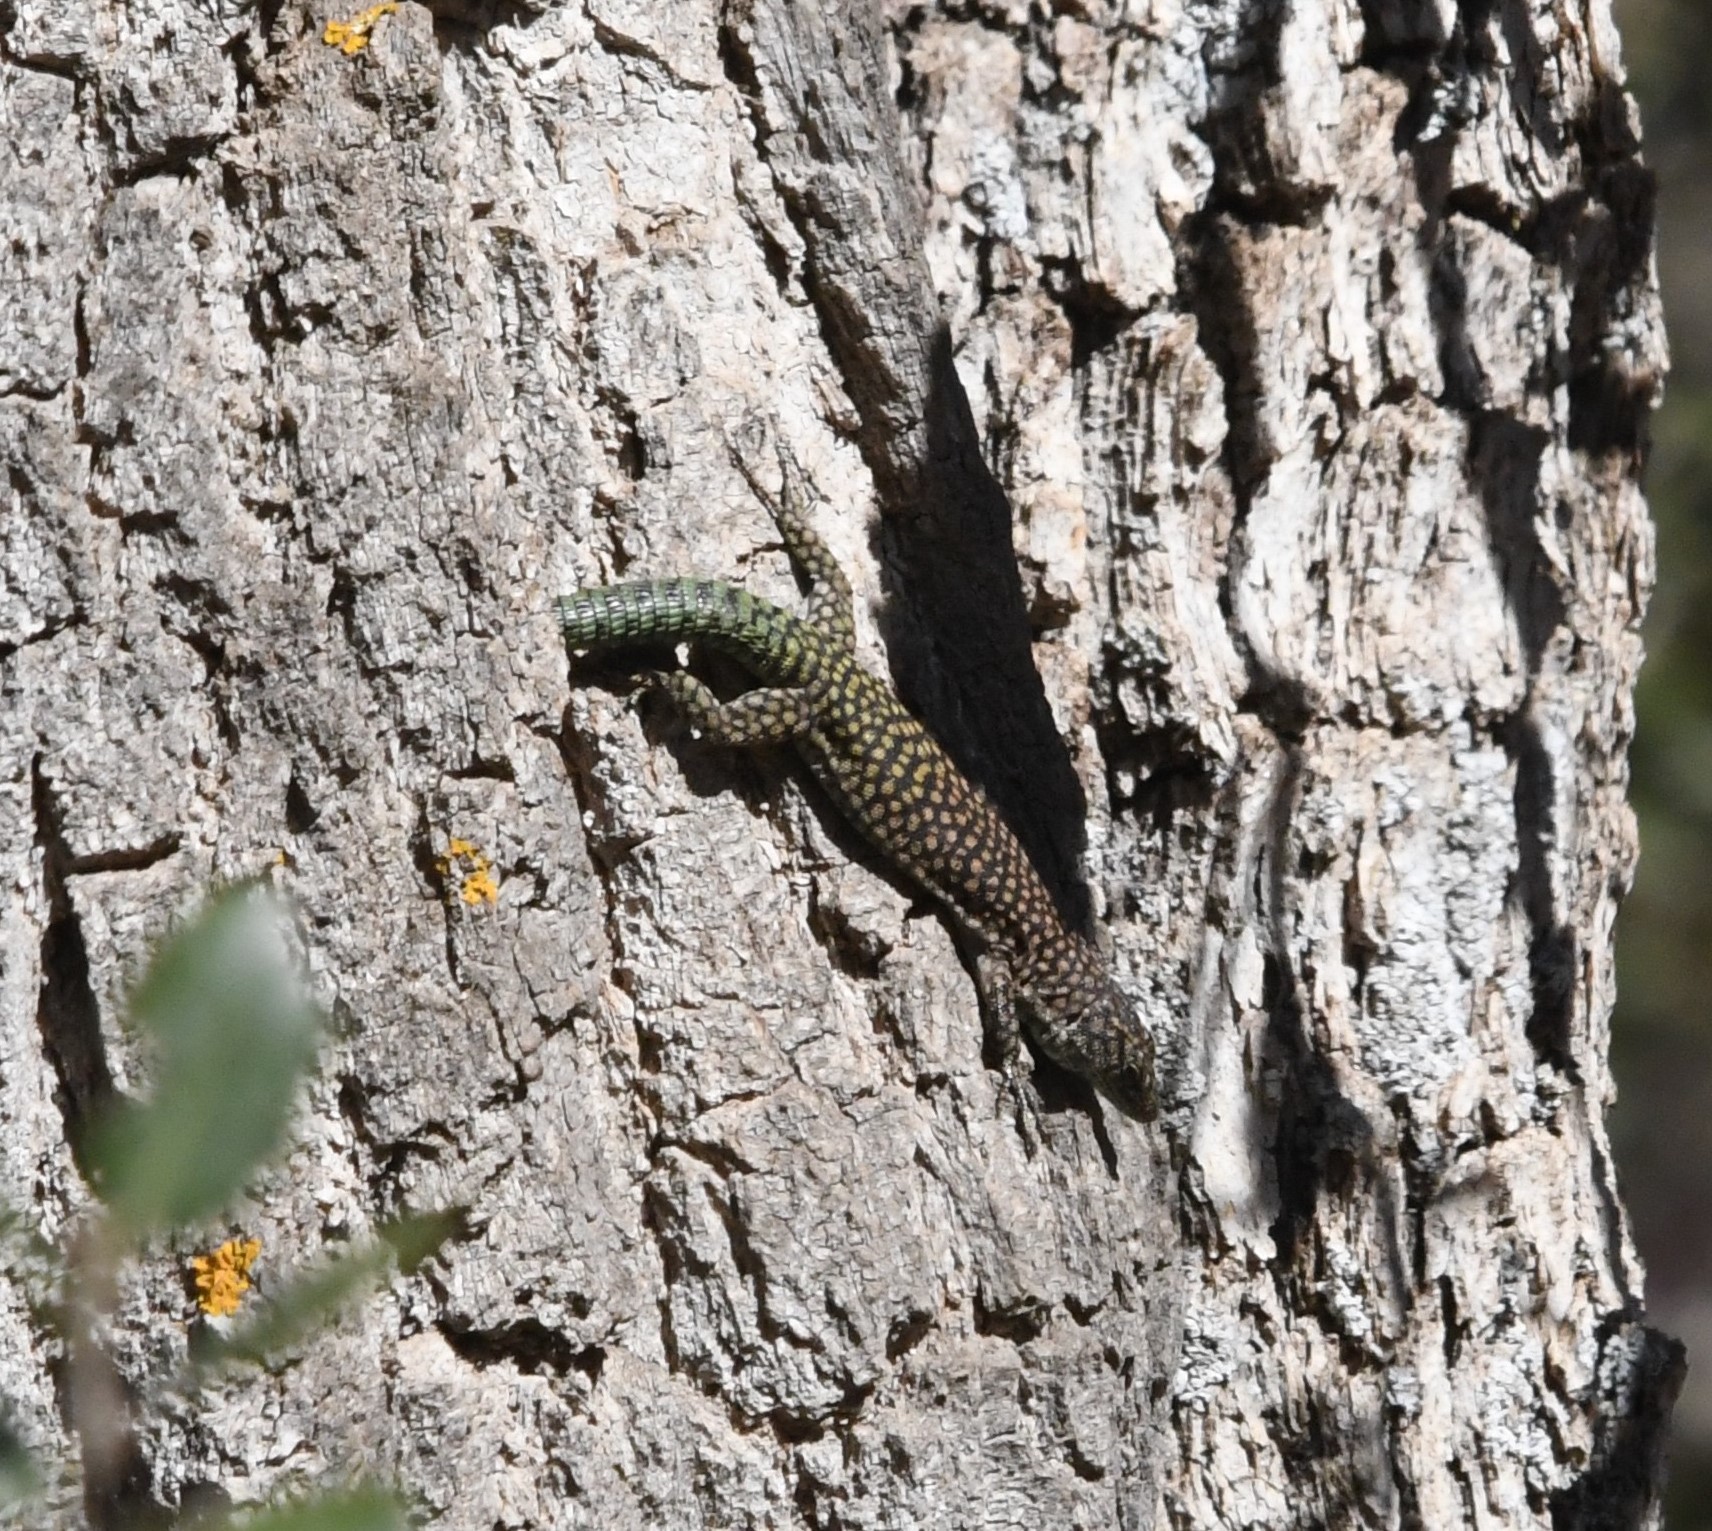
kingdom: Animalia
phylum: Chordata
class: Squamata
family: Lacertidae
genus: Scelarcis
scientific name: Scelarcis perspicillata
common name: Moroccan rock lizard
